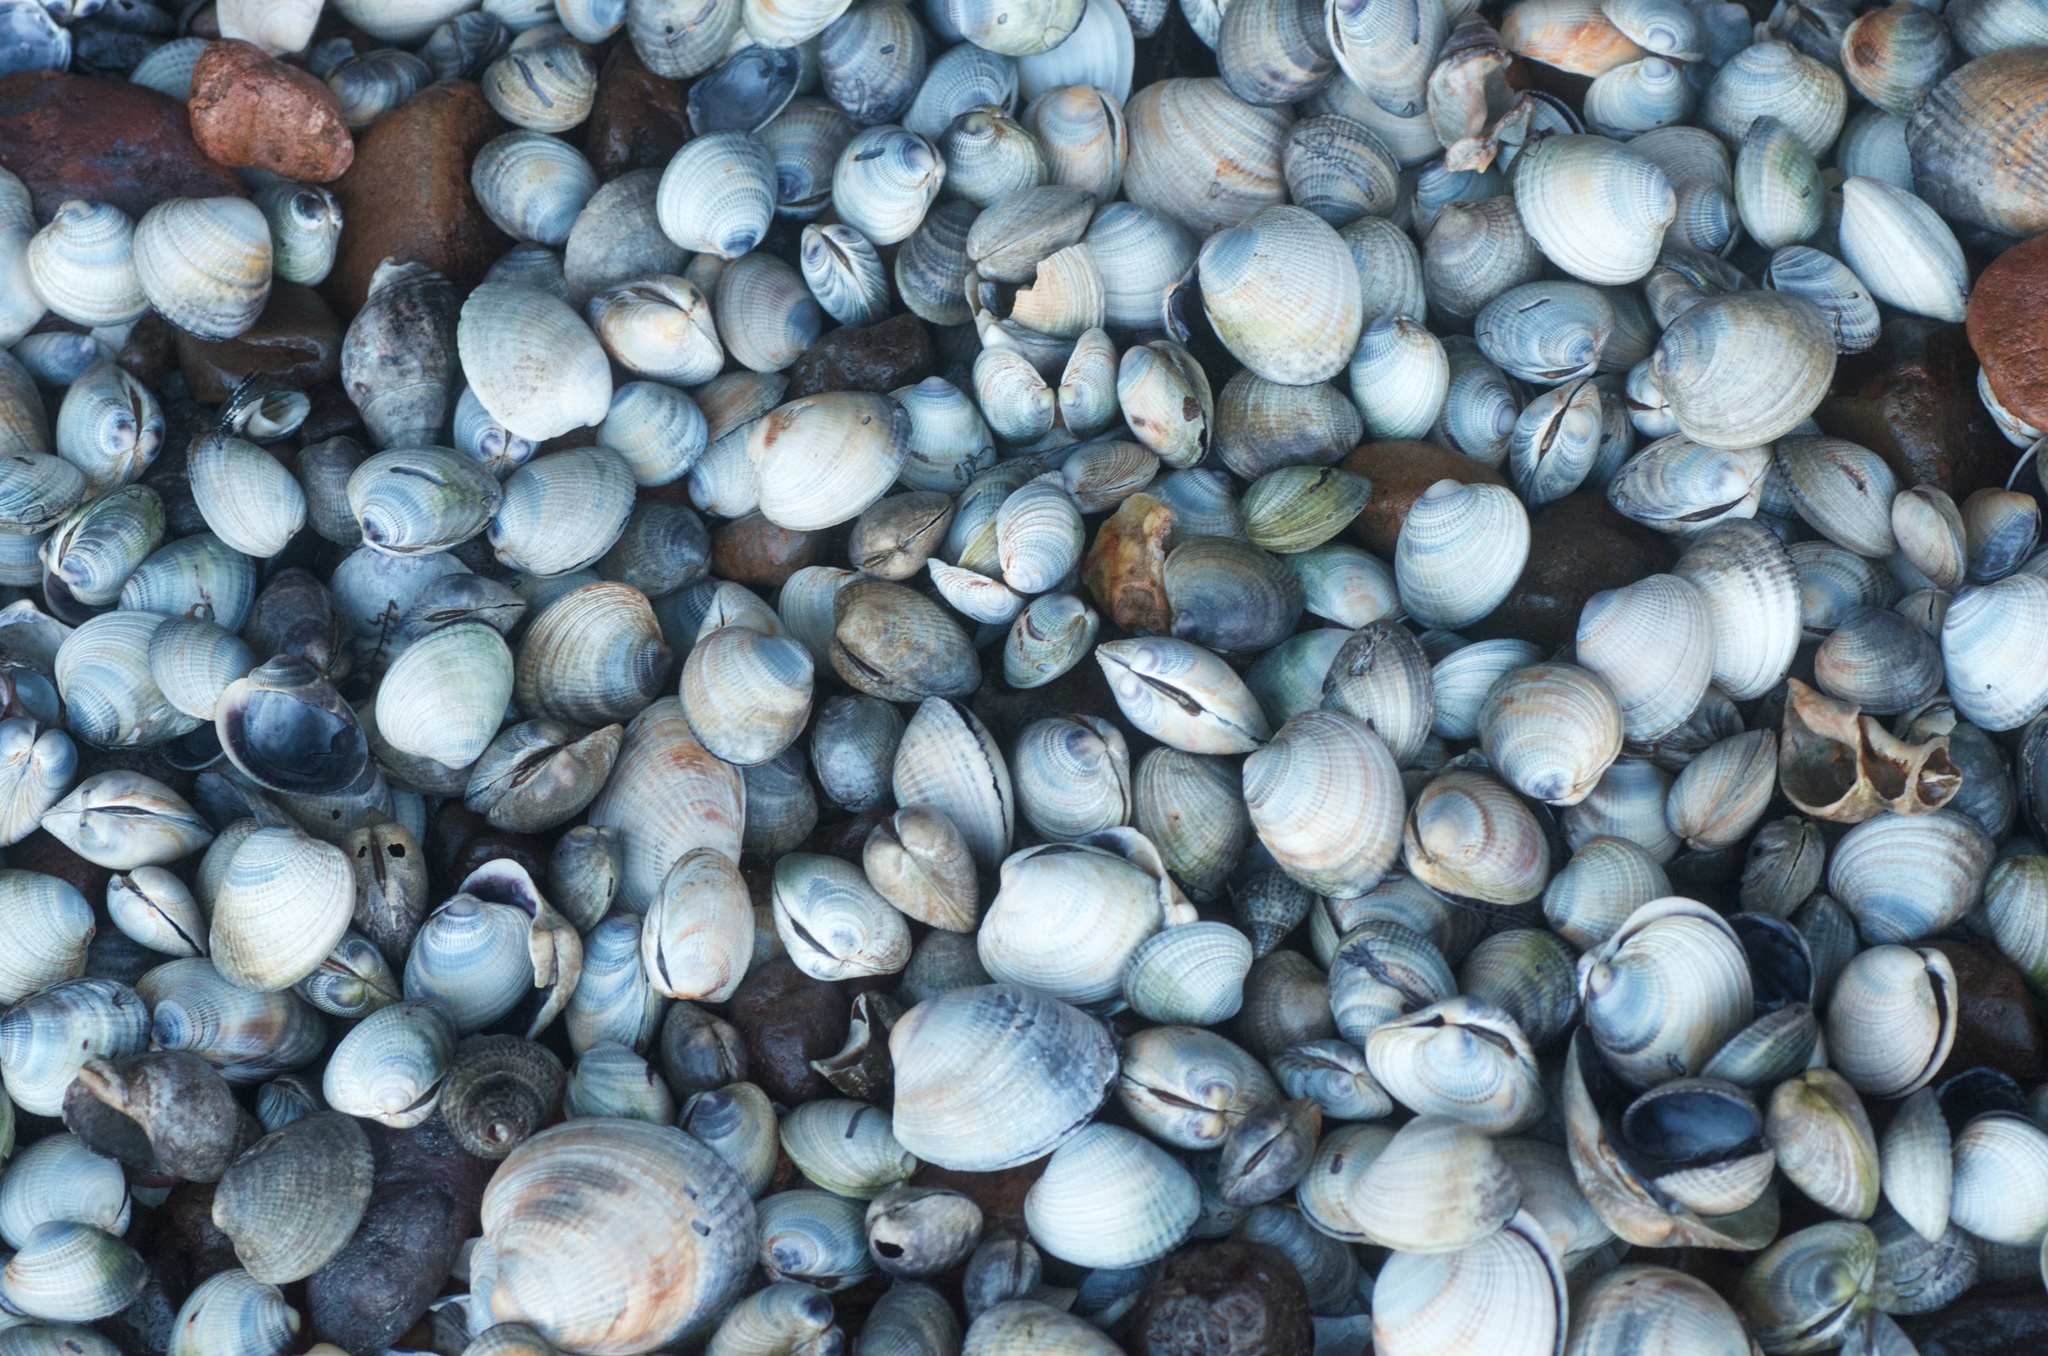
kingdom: Animalia
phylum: Mollusca
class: Bivalvia
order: Venerida
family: Veneridae
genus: Austrovenus
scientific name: Austrovenus stutchburyi
